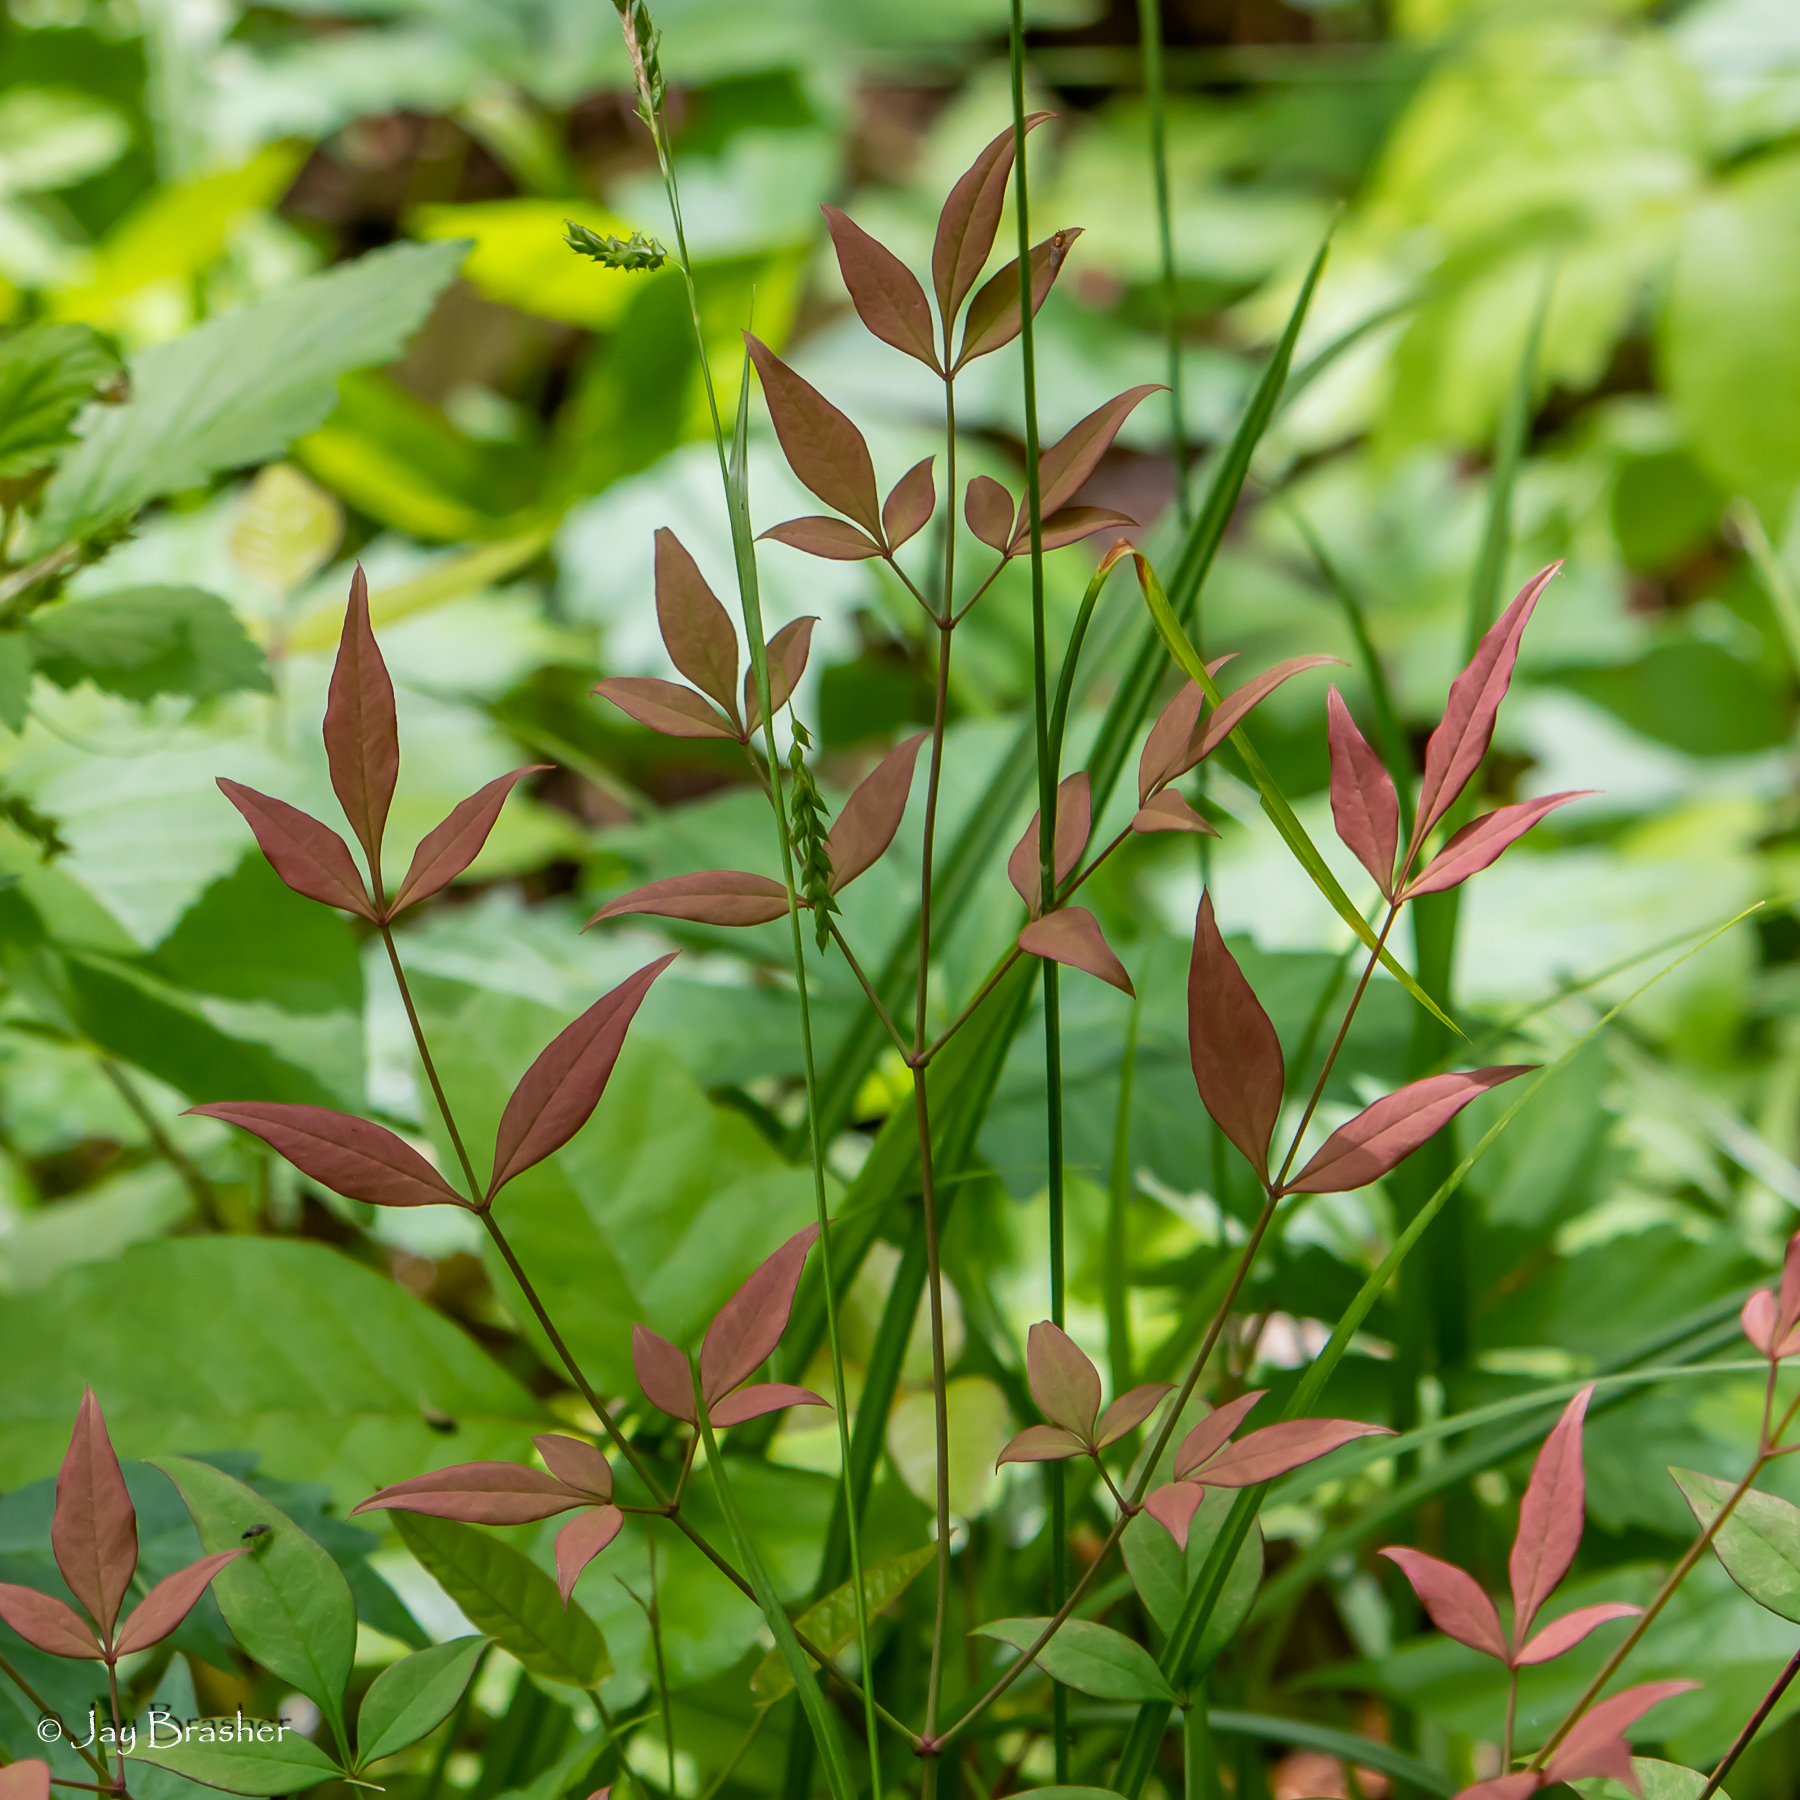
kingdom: Plantae
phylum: Tracheophyta
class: Magnoliopsida
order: Ranunculales
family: Berberidaceae
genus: Nandina
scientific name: Nandina domestica
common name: Sacred bamboo
